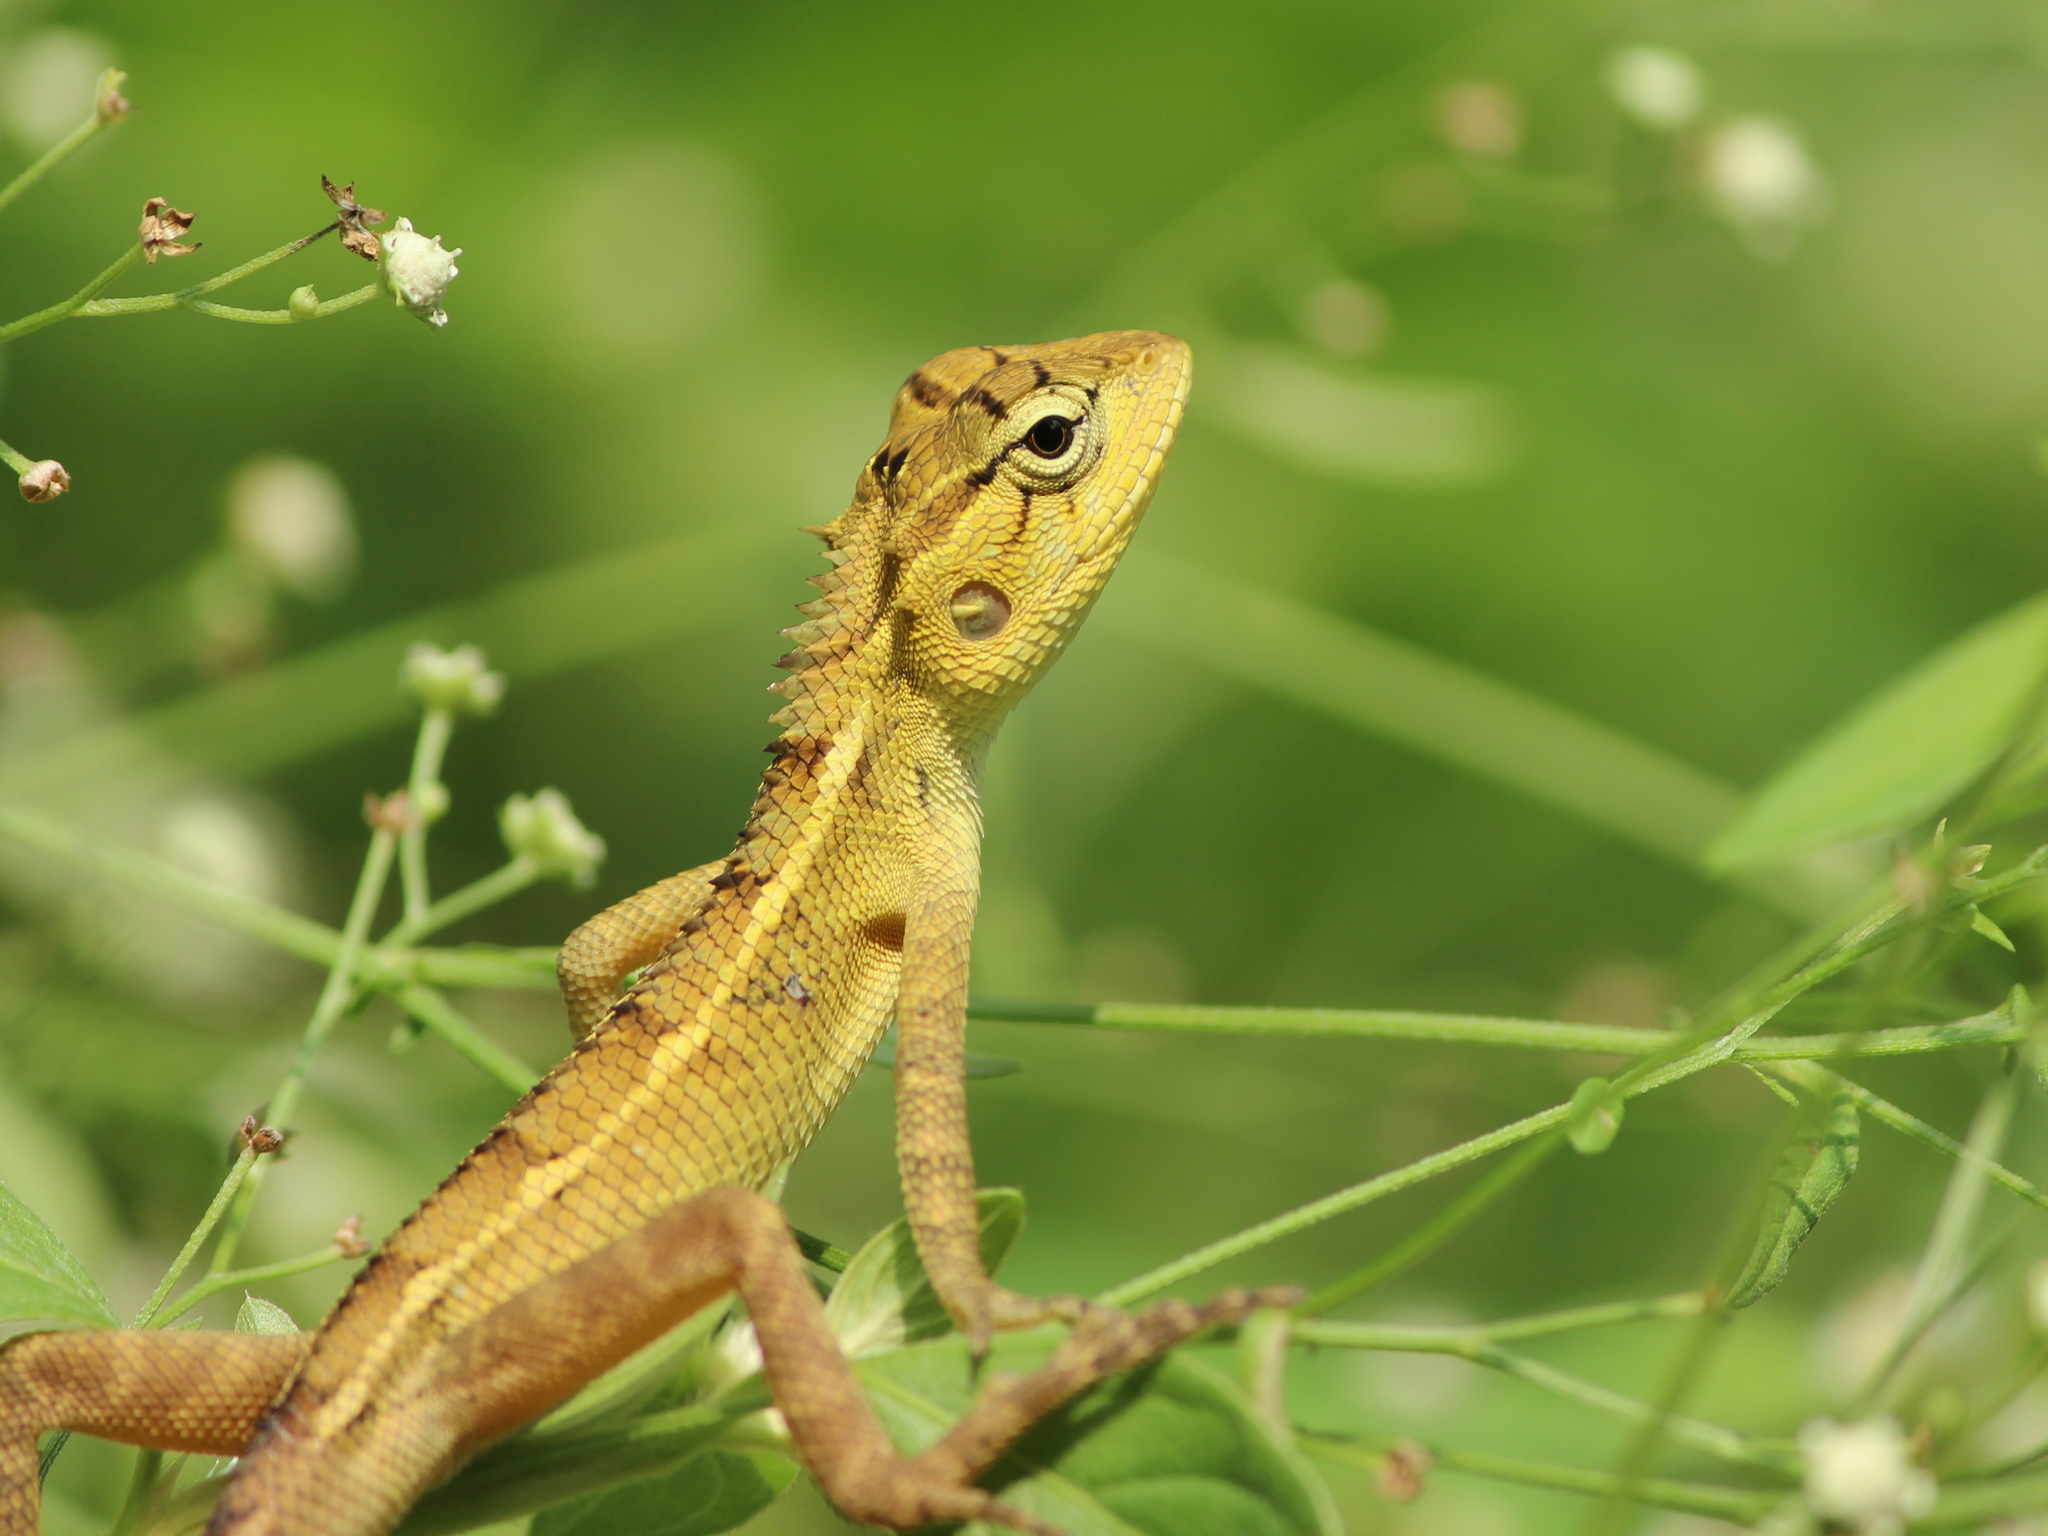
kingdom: Animalia
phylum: Chordata
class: Squamata
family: Agamidae
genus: Calotes
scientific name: Calotes versicolor
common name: Oriental garden lizard
